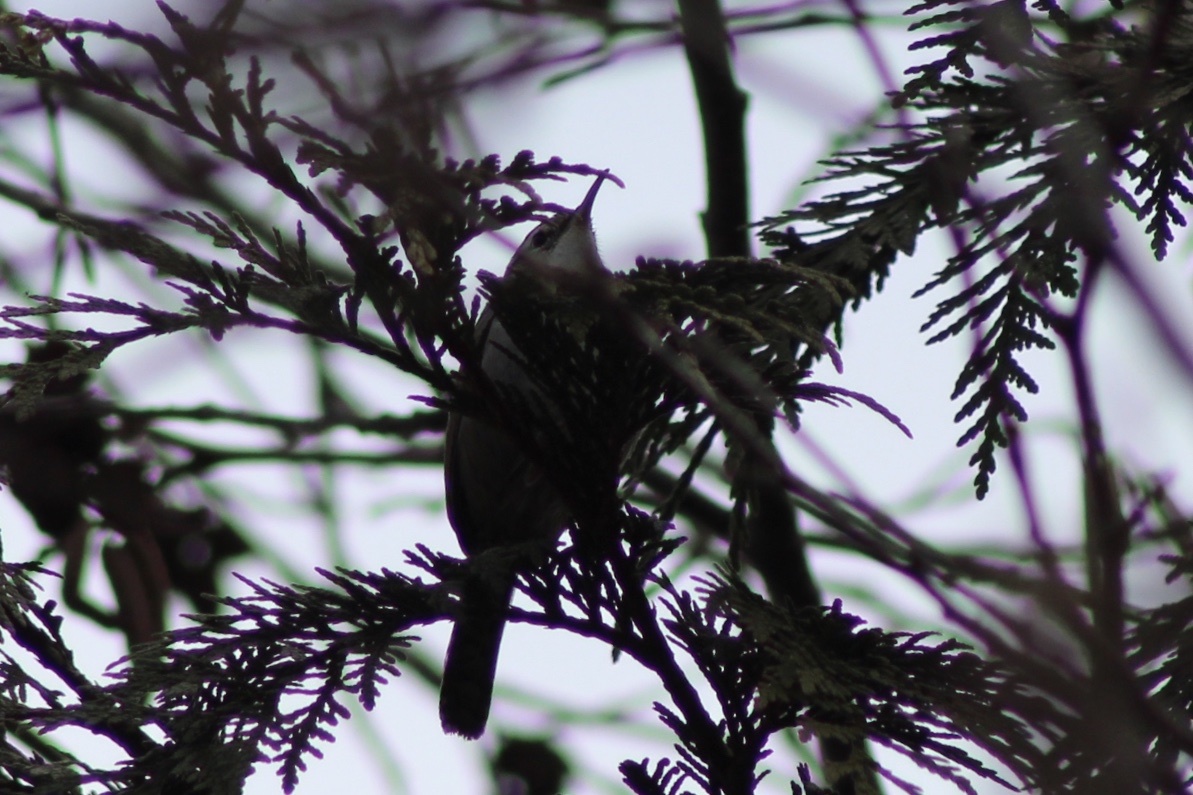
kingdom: Animalia
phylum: Chordata
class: Aves
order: Passeriformes
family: Troglodytidae
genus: Thryomanes
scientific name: Thryomanes bewickii
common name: Bewick's wren
